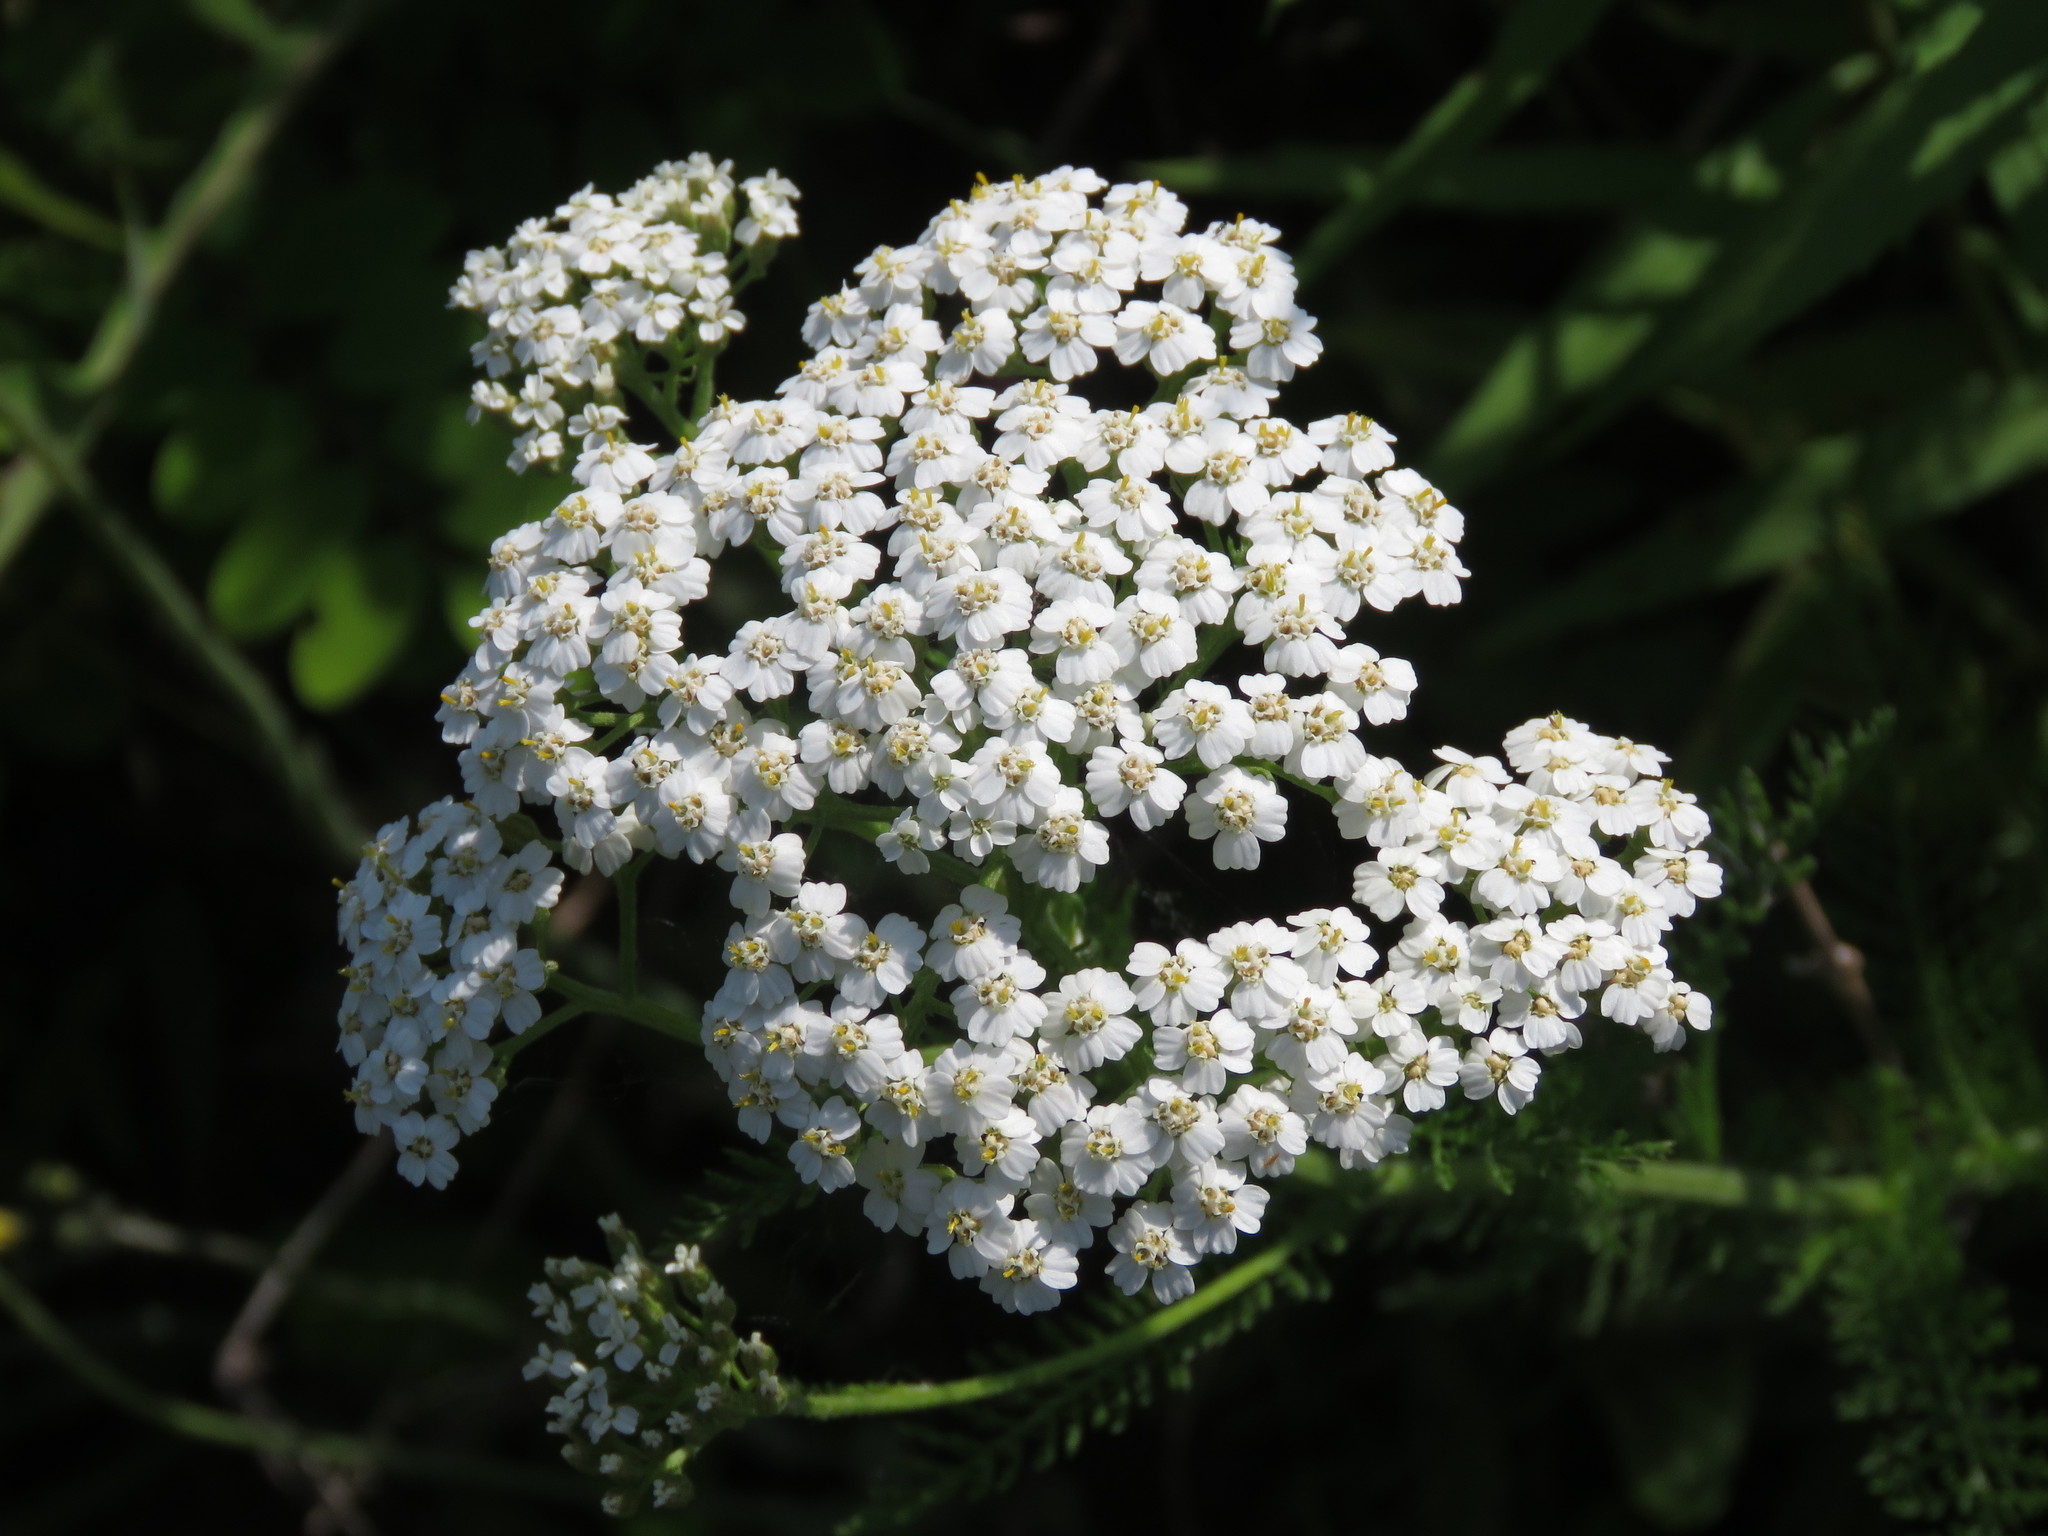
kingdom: Plantae
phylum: Tracheophyta
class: Magnoliopsida
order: Asterales
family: Asteraceae
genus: Achillea
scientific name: Achillea millefolium
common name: Yarrow
